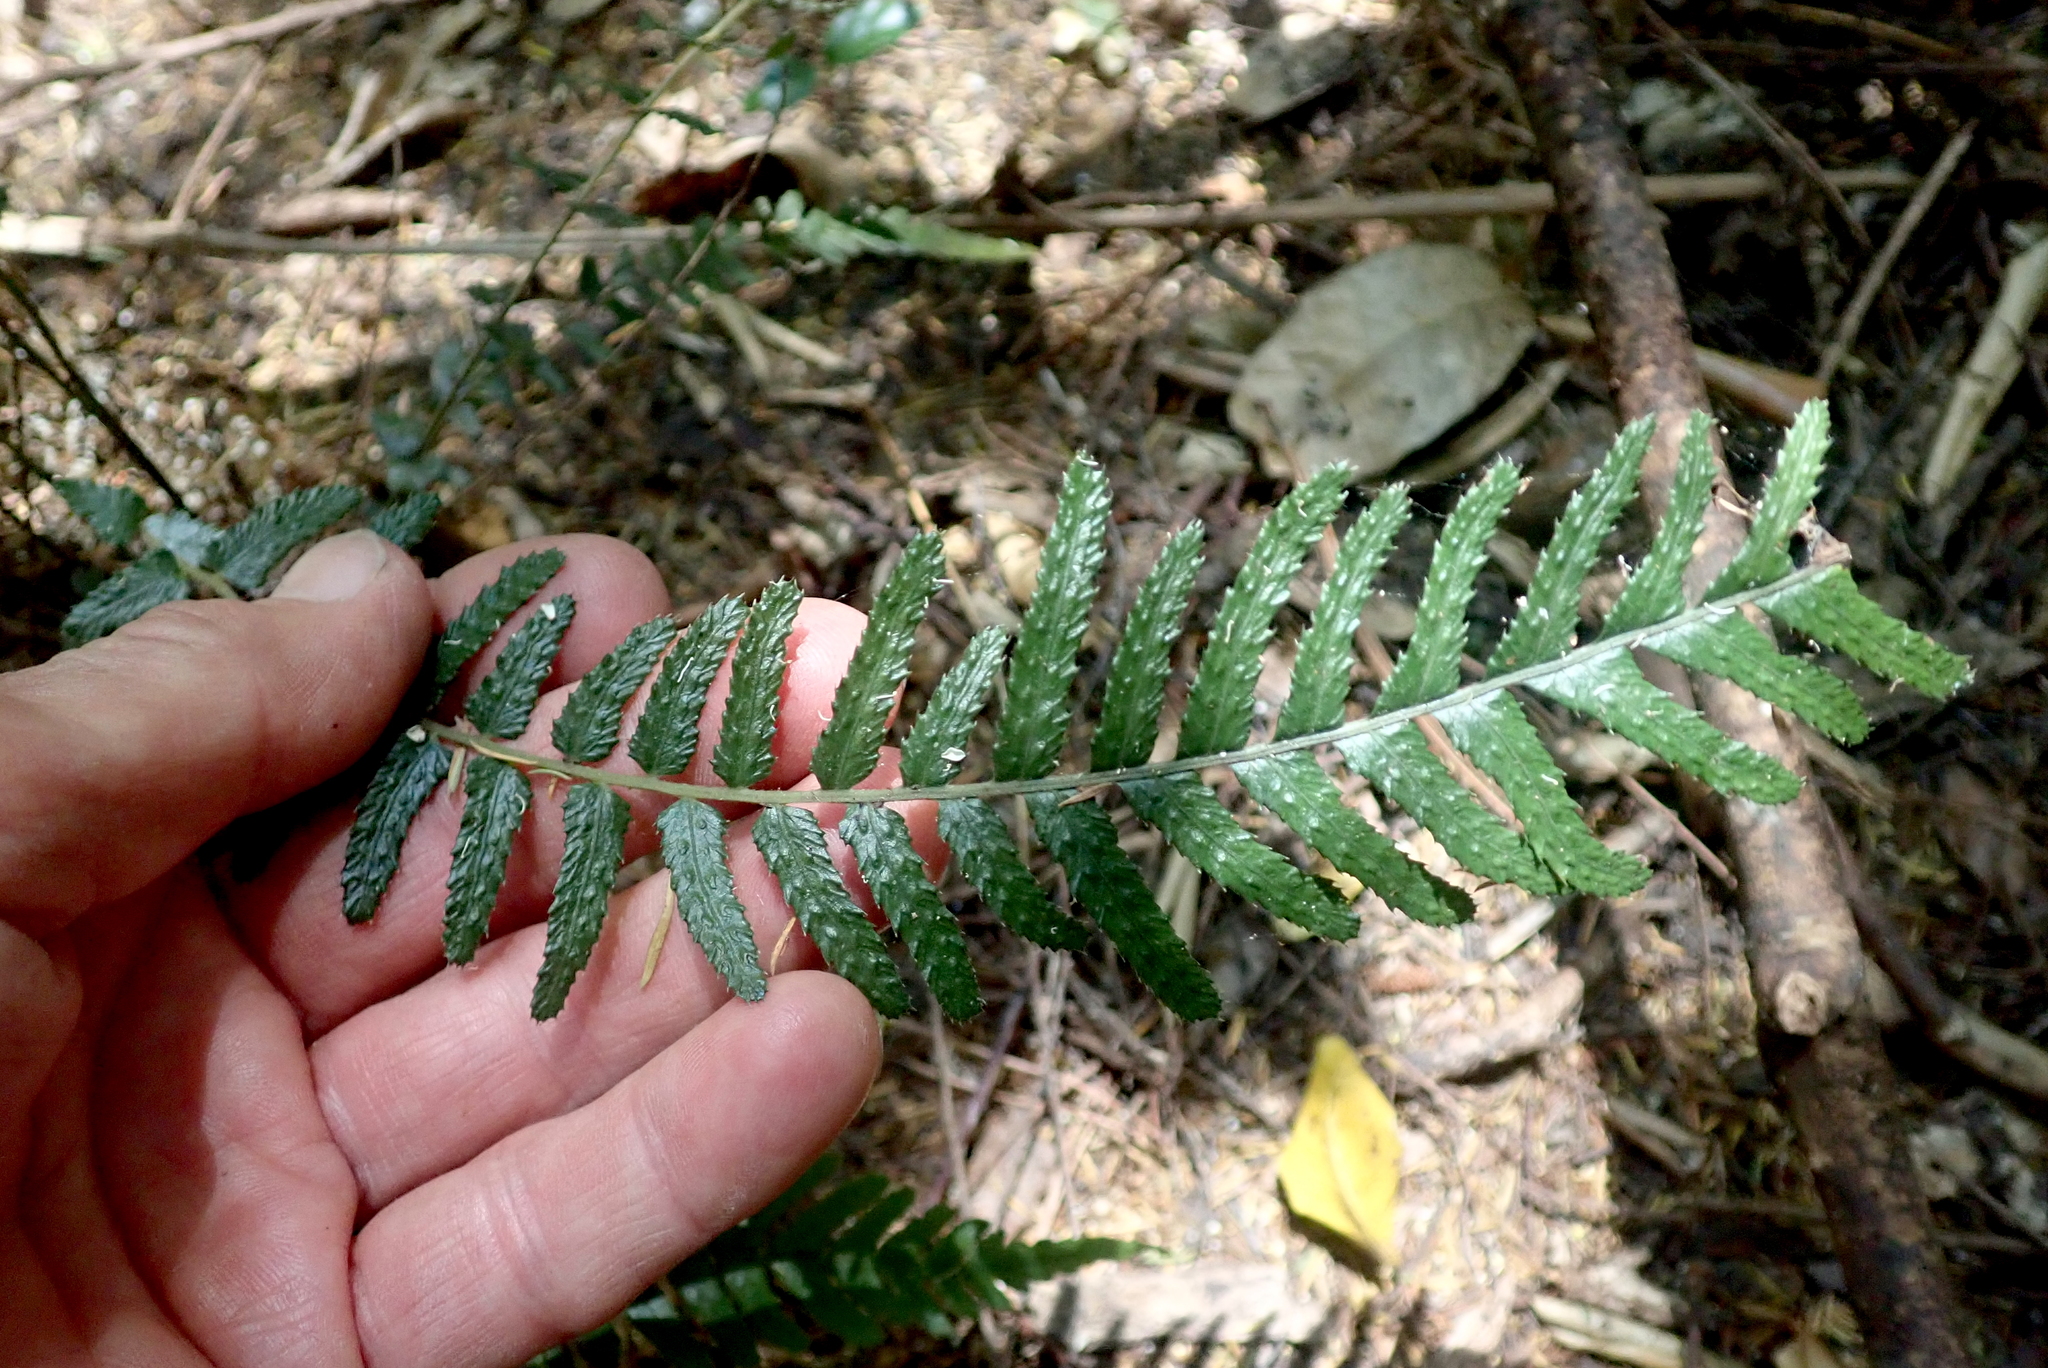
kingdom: Plantae
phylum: Tracheophyta
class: Polypodiopsida
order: Polypodiales
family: Blechnaceae
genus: Doodia
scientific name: Doodia australis
